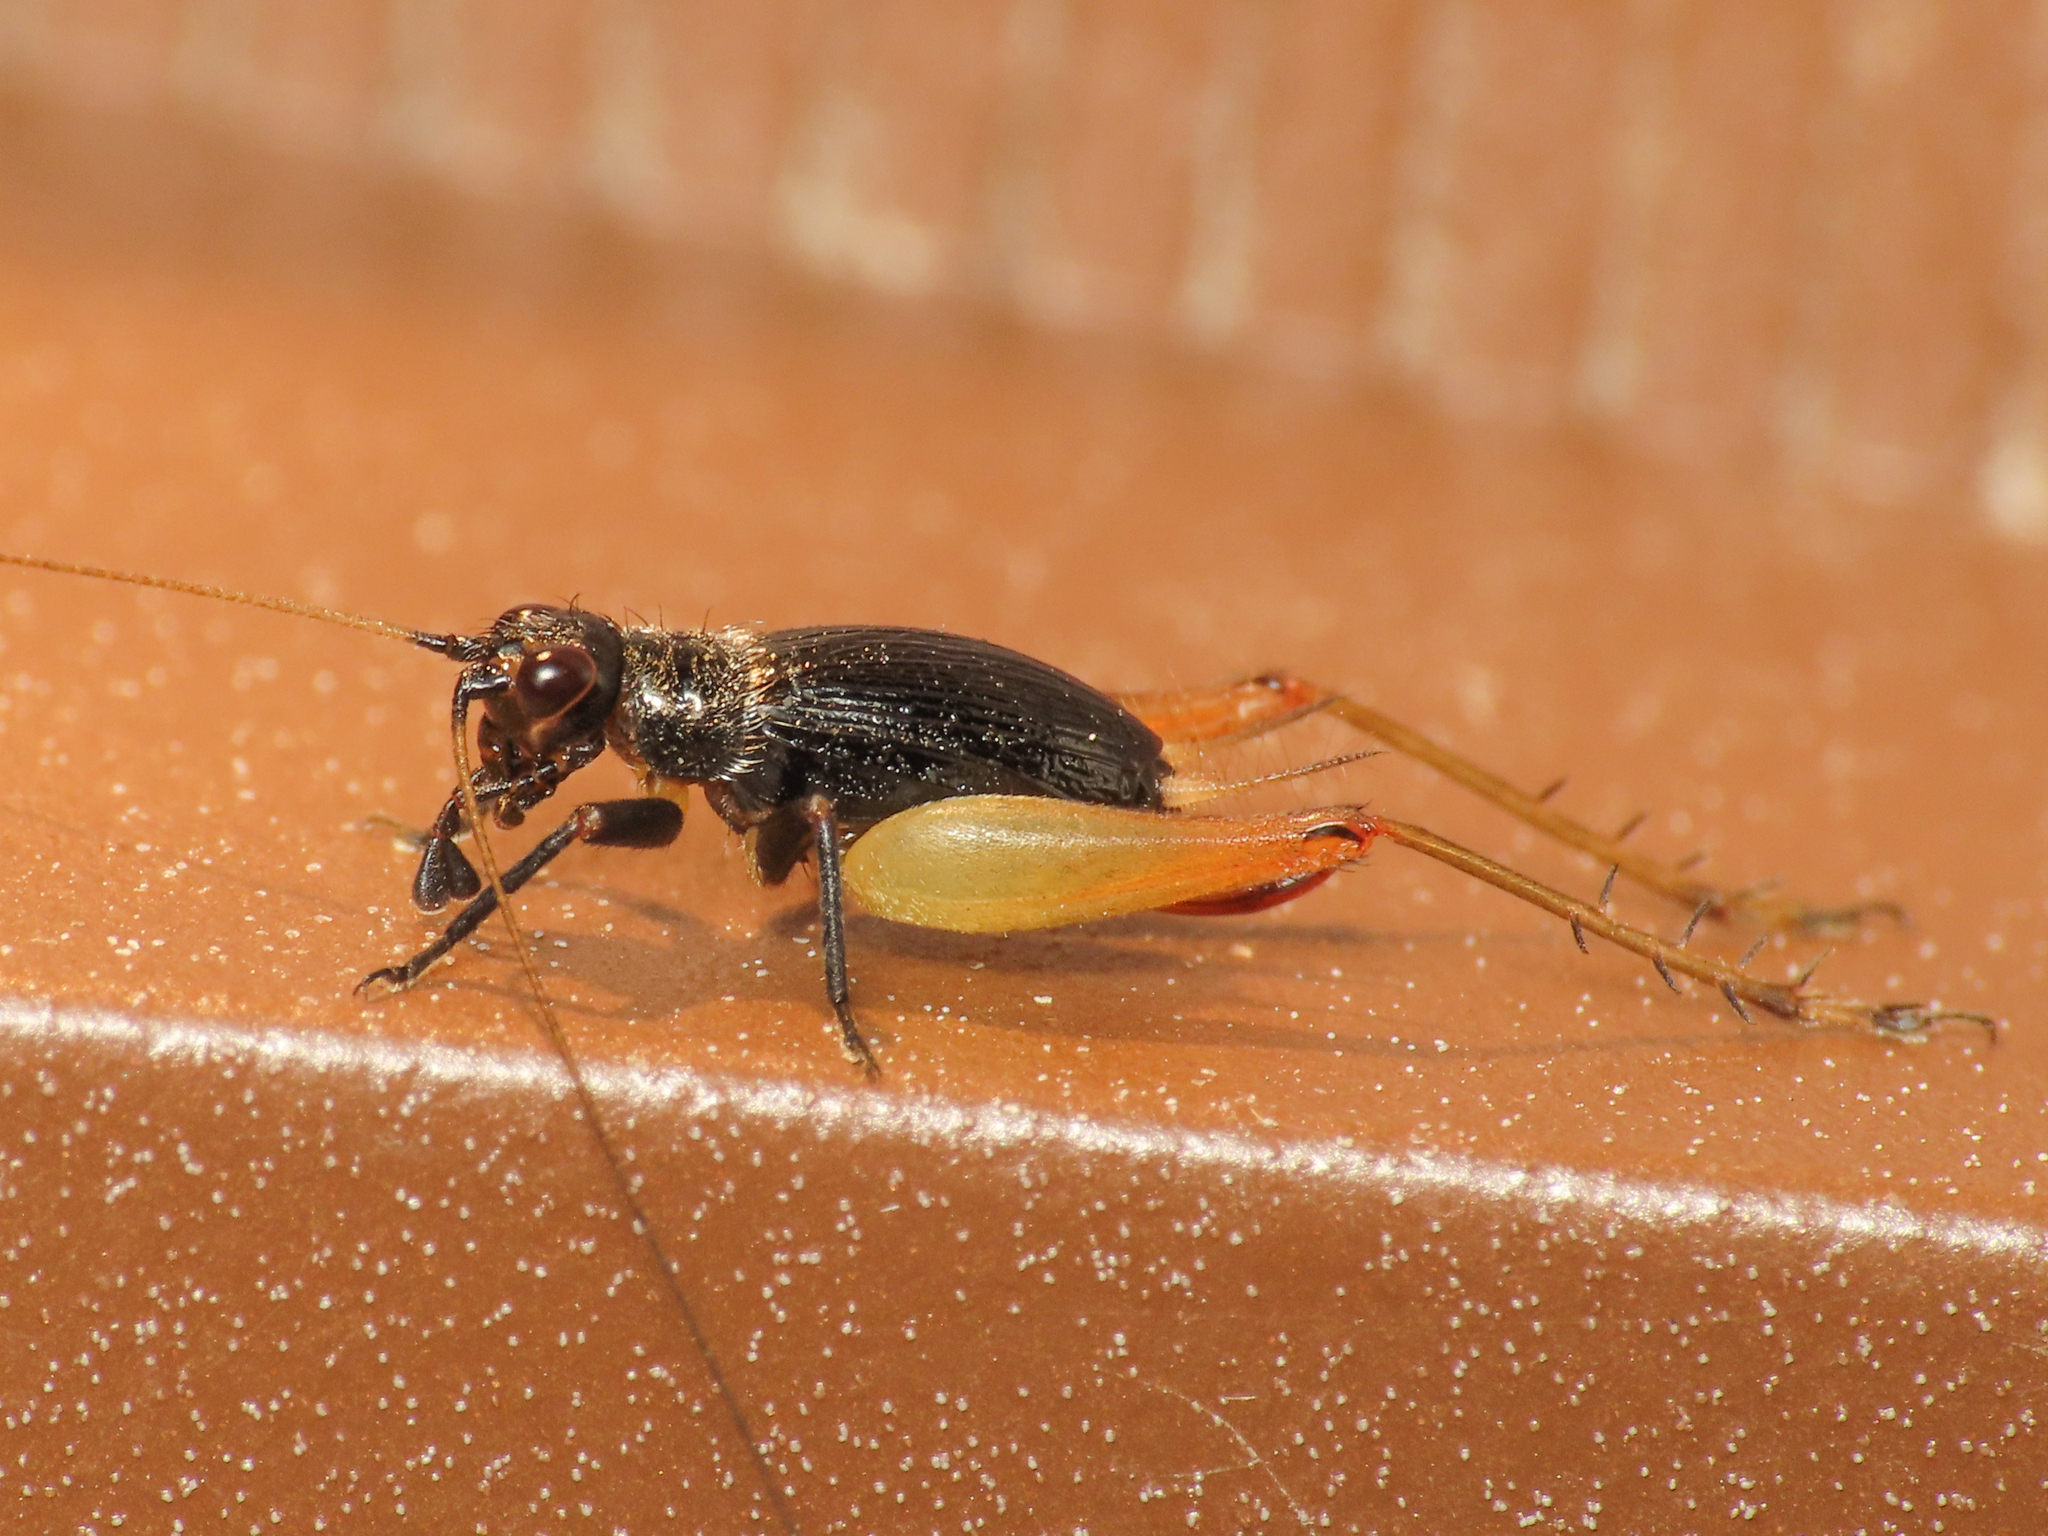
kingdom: Animalia
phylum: Arthropoda
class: Insecta
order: Orthoptera
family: Trigonidiidae
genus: Trigonidium
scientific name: Trigonidium cicindeloides
